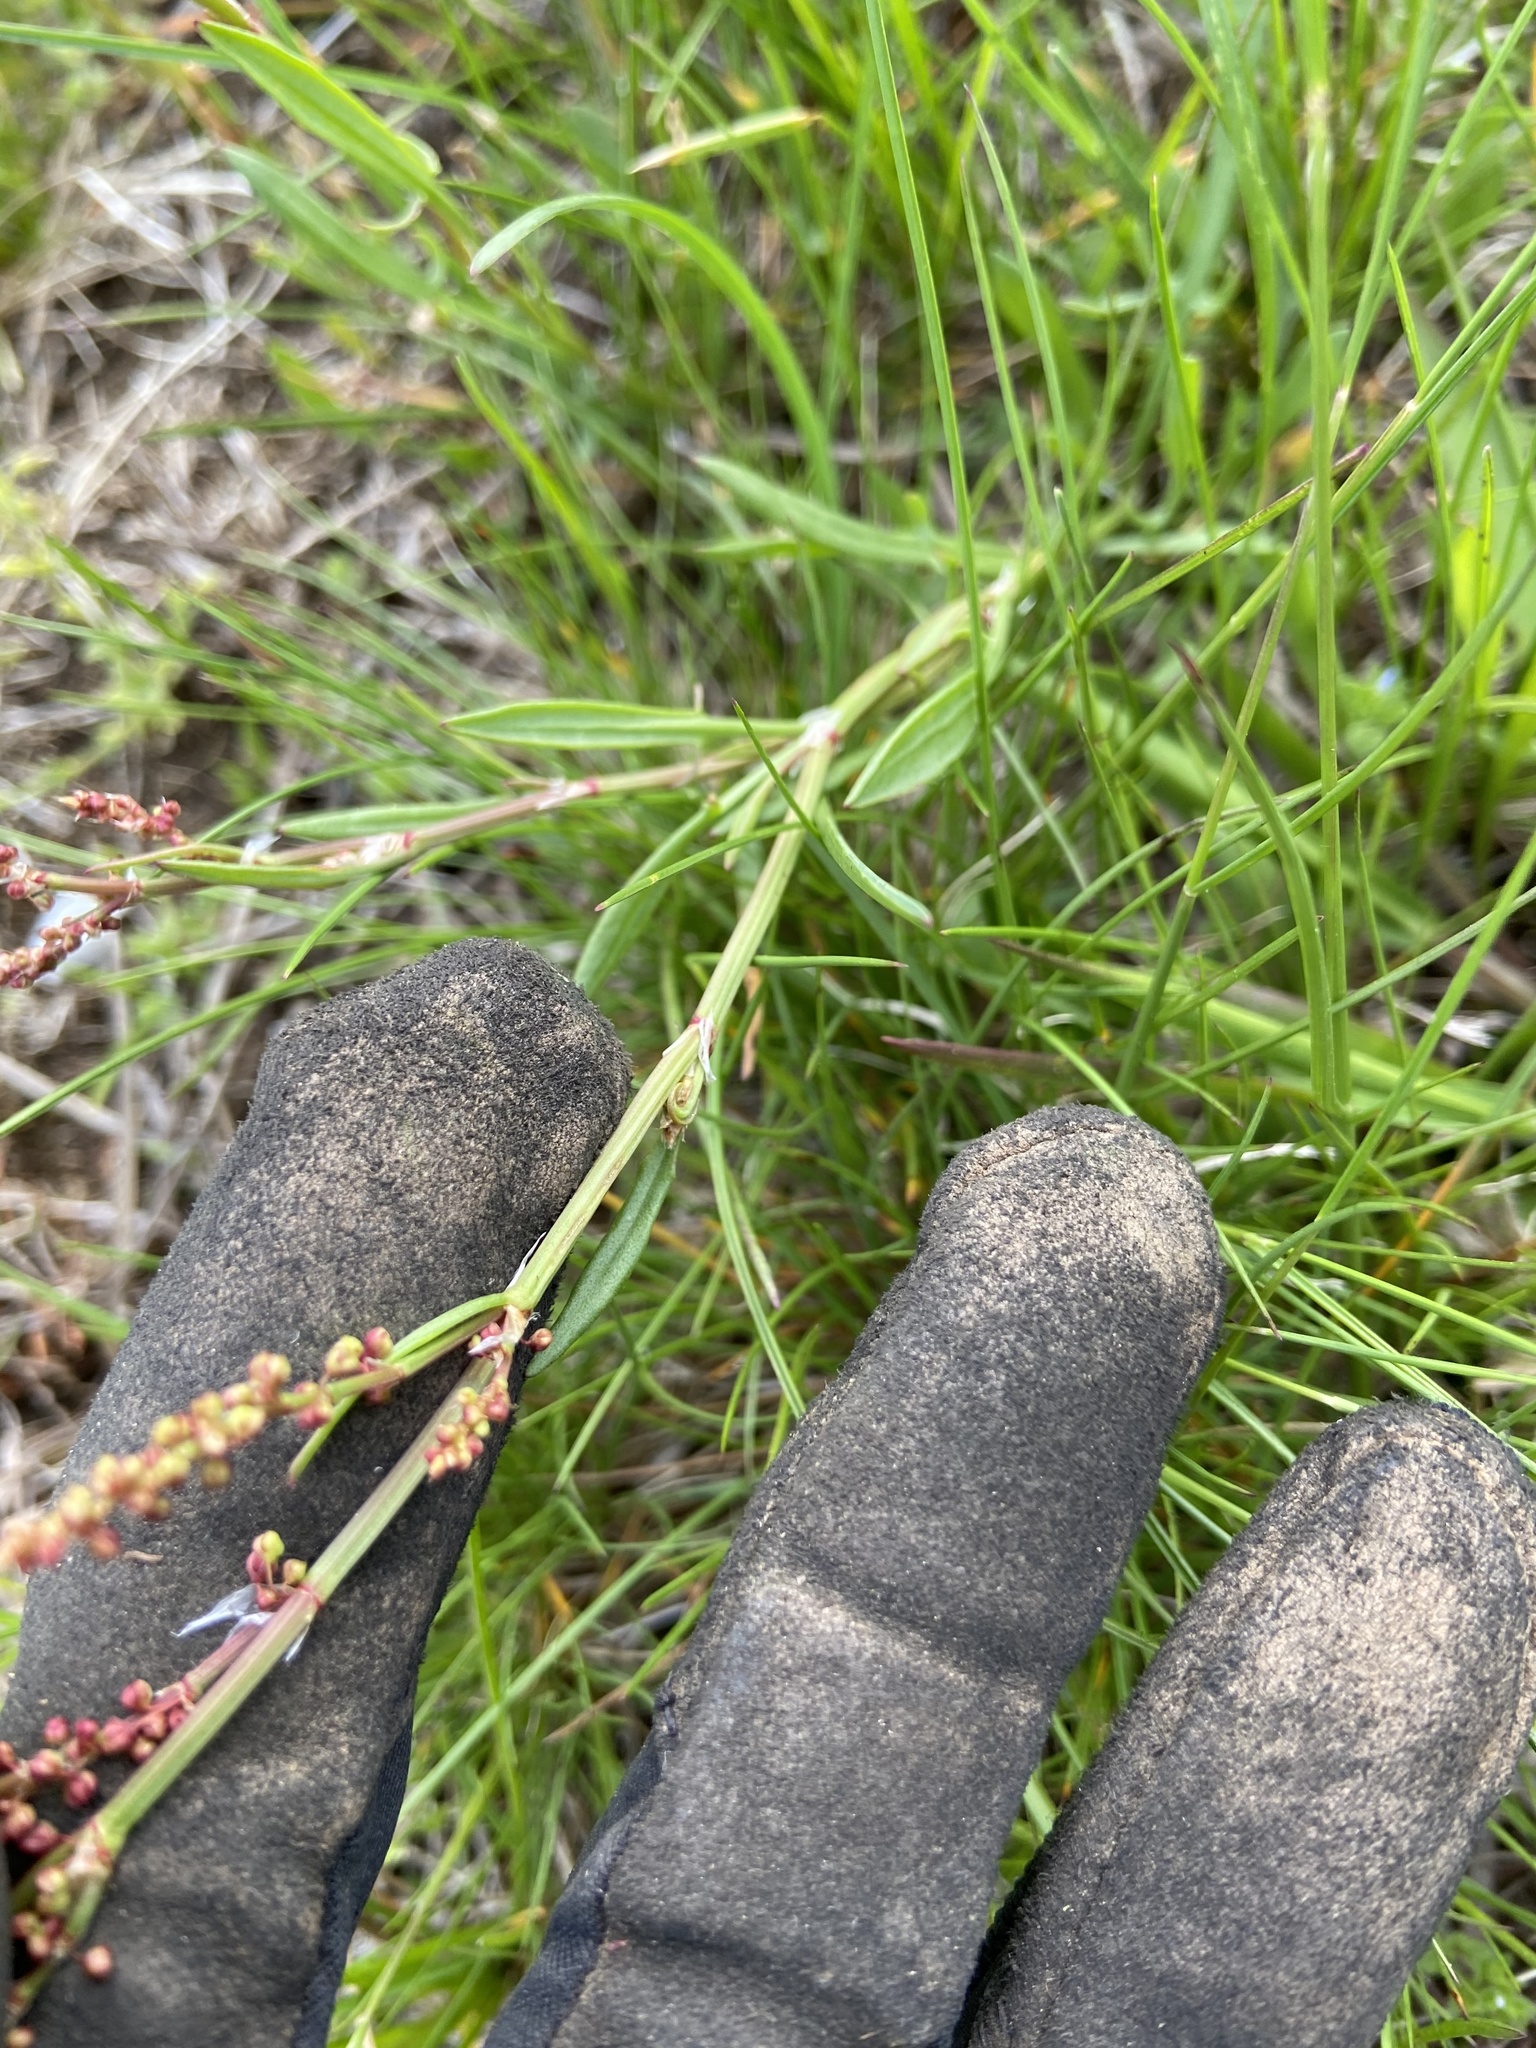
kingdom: Plantae
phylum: Tracheophyta
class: Magnoliopsida
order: Caryophyllales
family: Polygonaceae
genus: Rumex
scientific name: Rumex acetosella
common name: Common sheep sorrel
